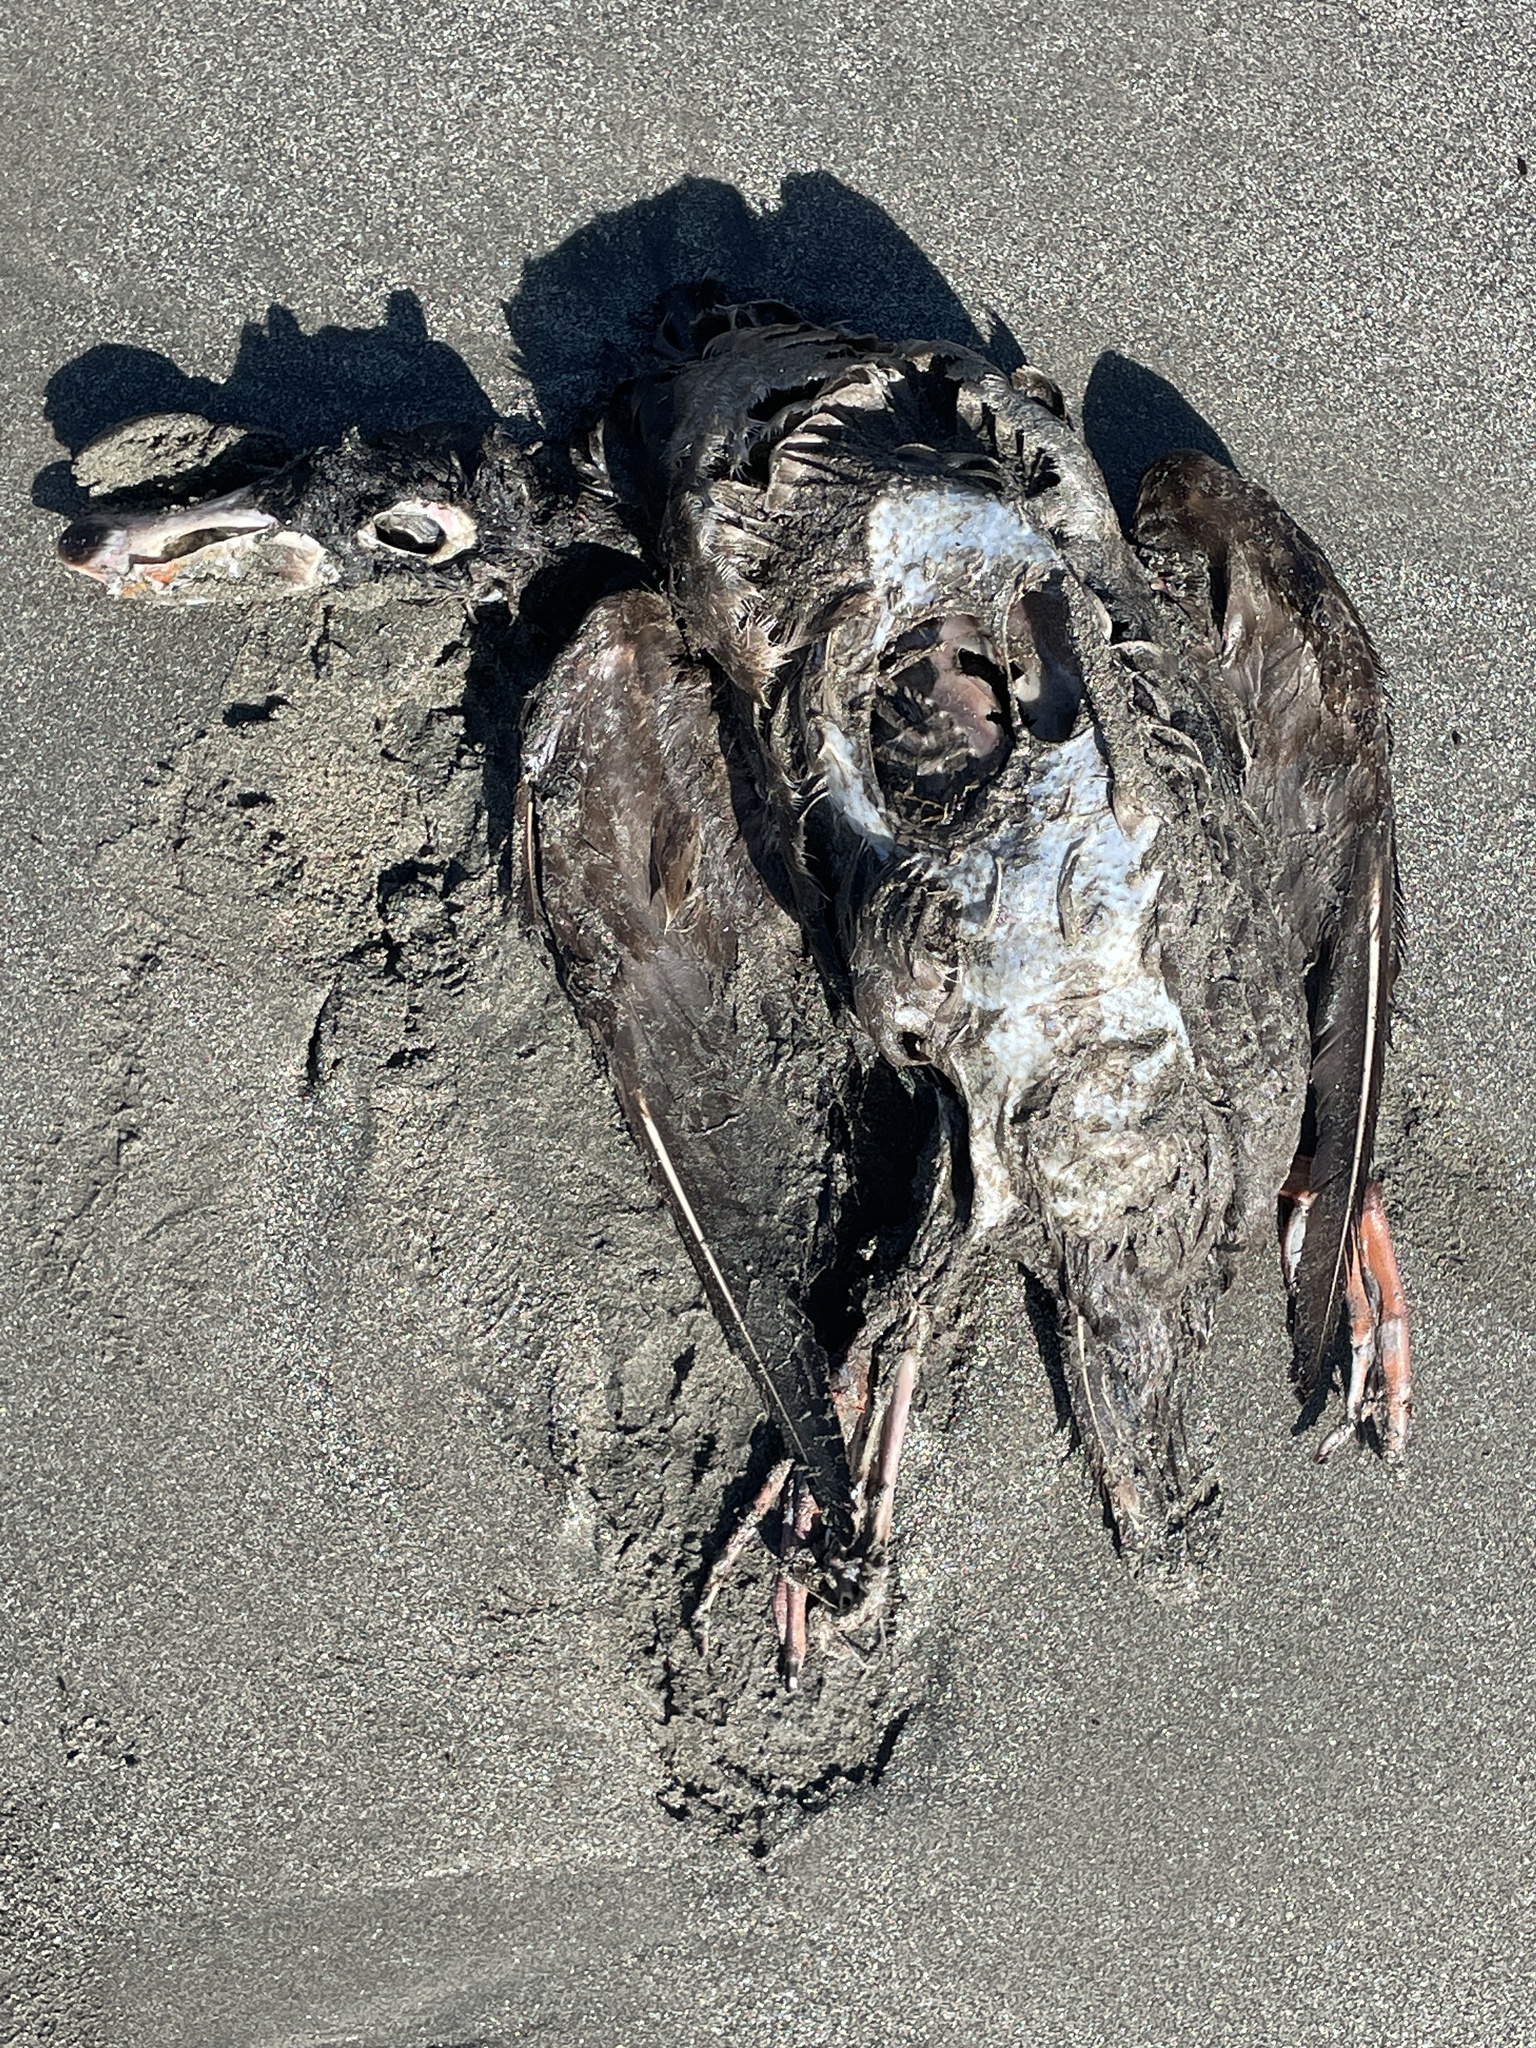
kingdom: Animalia
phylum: Chordata
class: Aves
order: Anseriformes
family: Anatidae
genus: Melanitta
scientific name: Melanitta perspicillata
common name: Surf scoter
